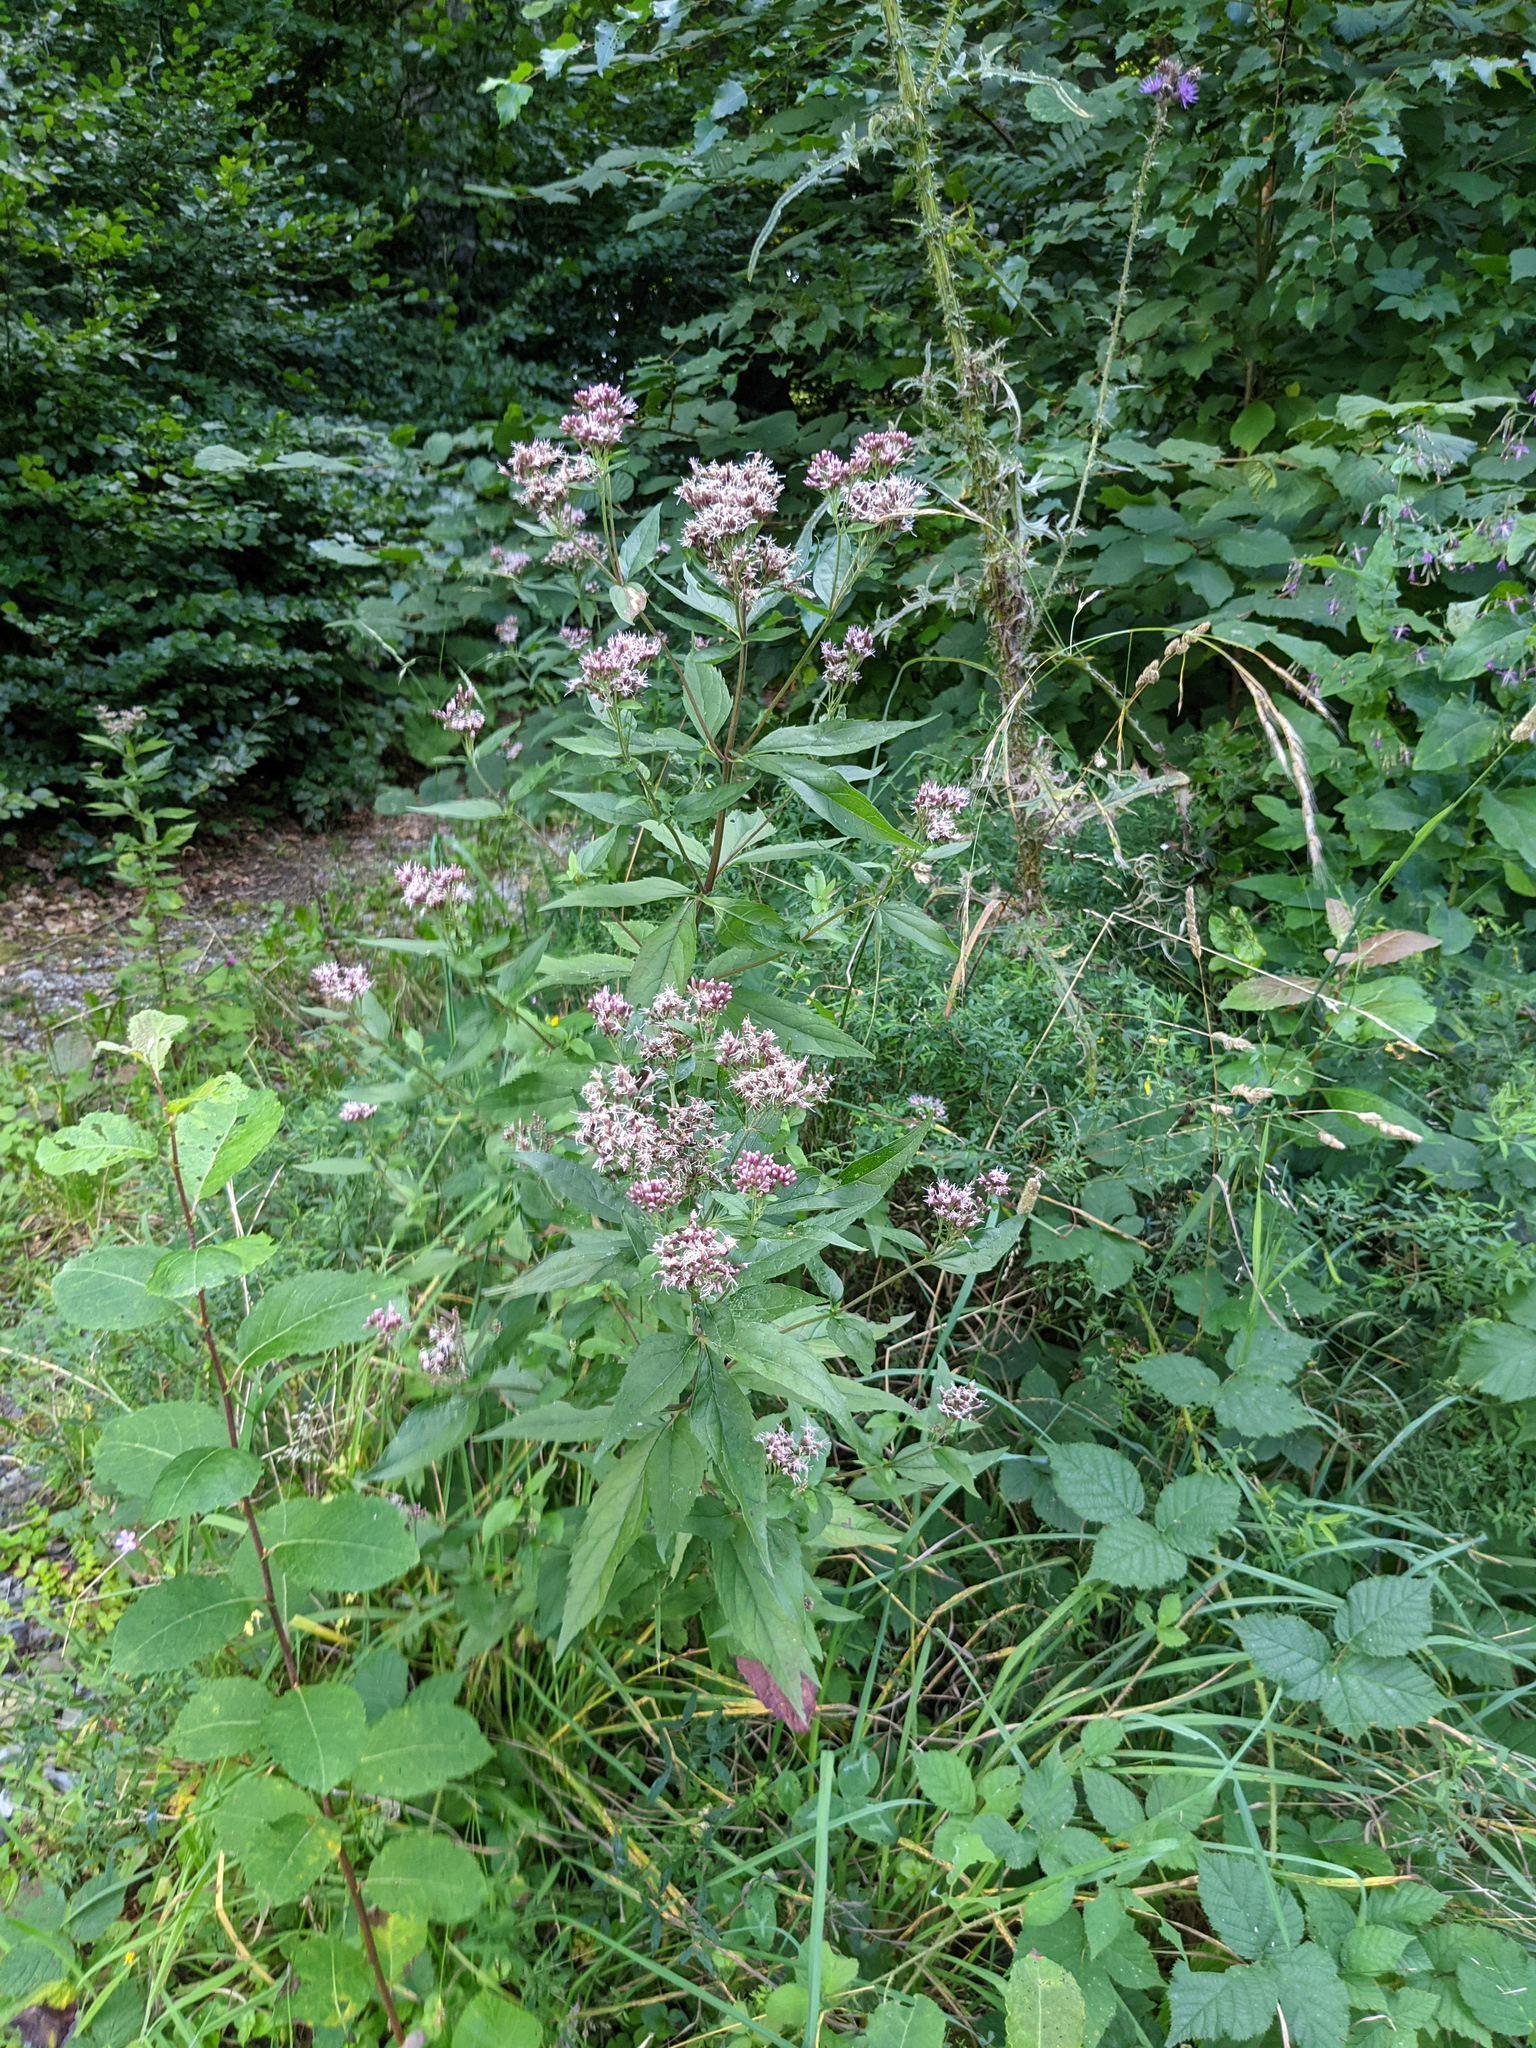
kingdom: Plantae
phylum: Tracheophyta
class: Magnoliopsida
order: Asterales
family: Asteraceae
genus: Eupatorium
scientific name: Eupatorium cannabinum
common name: Hemp-agrimony
